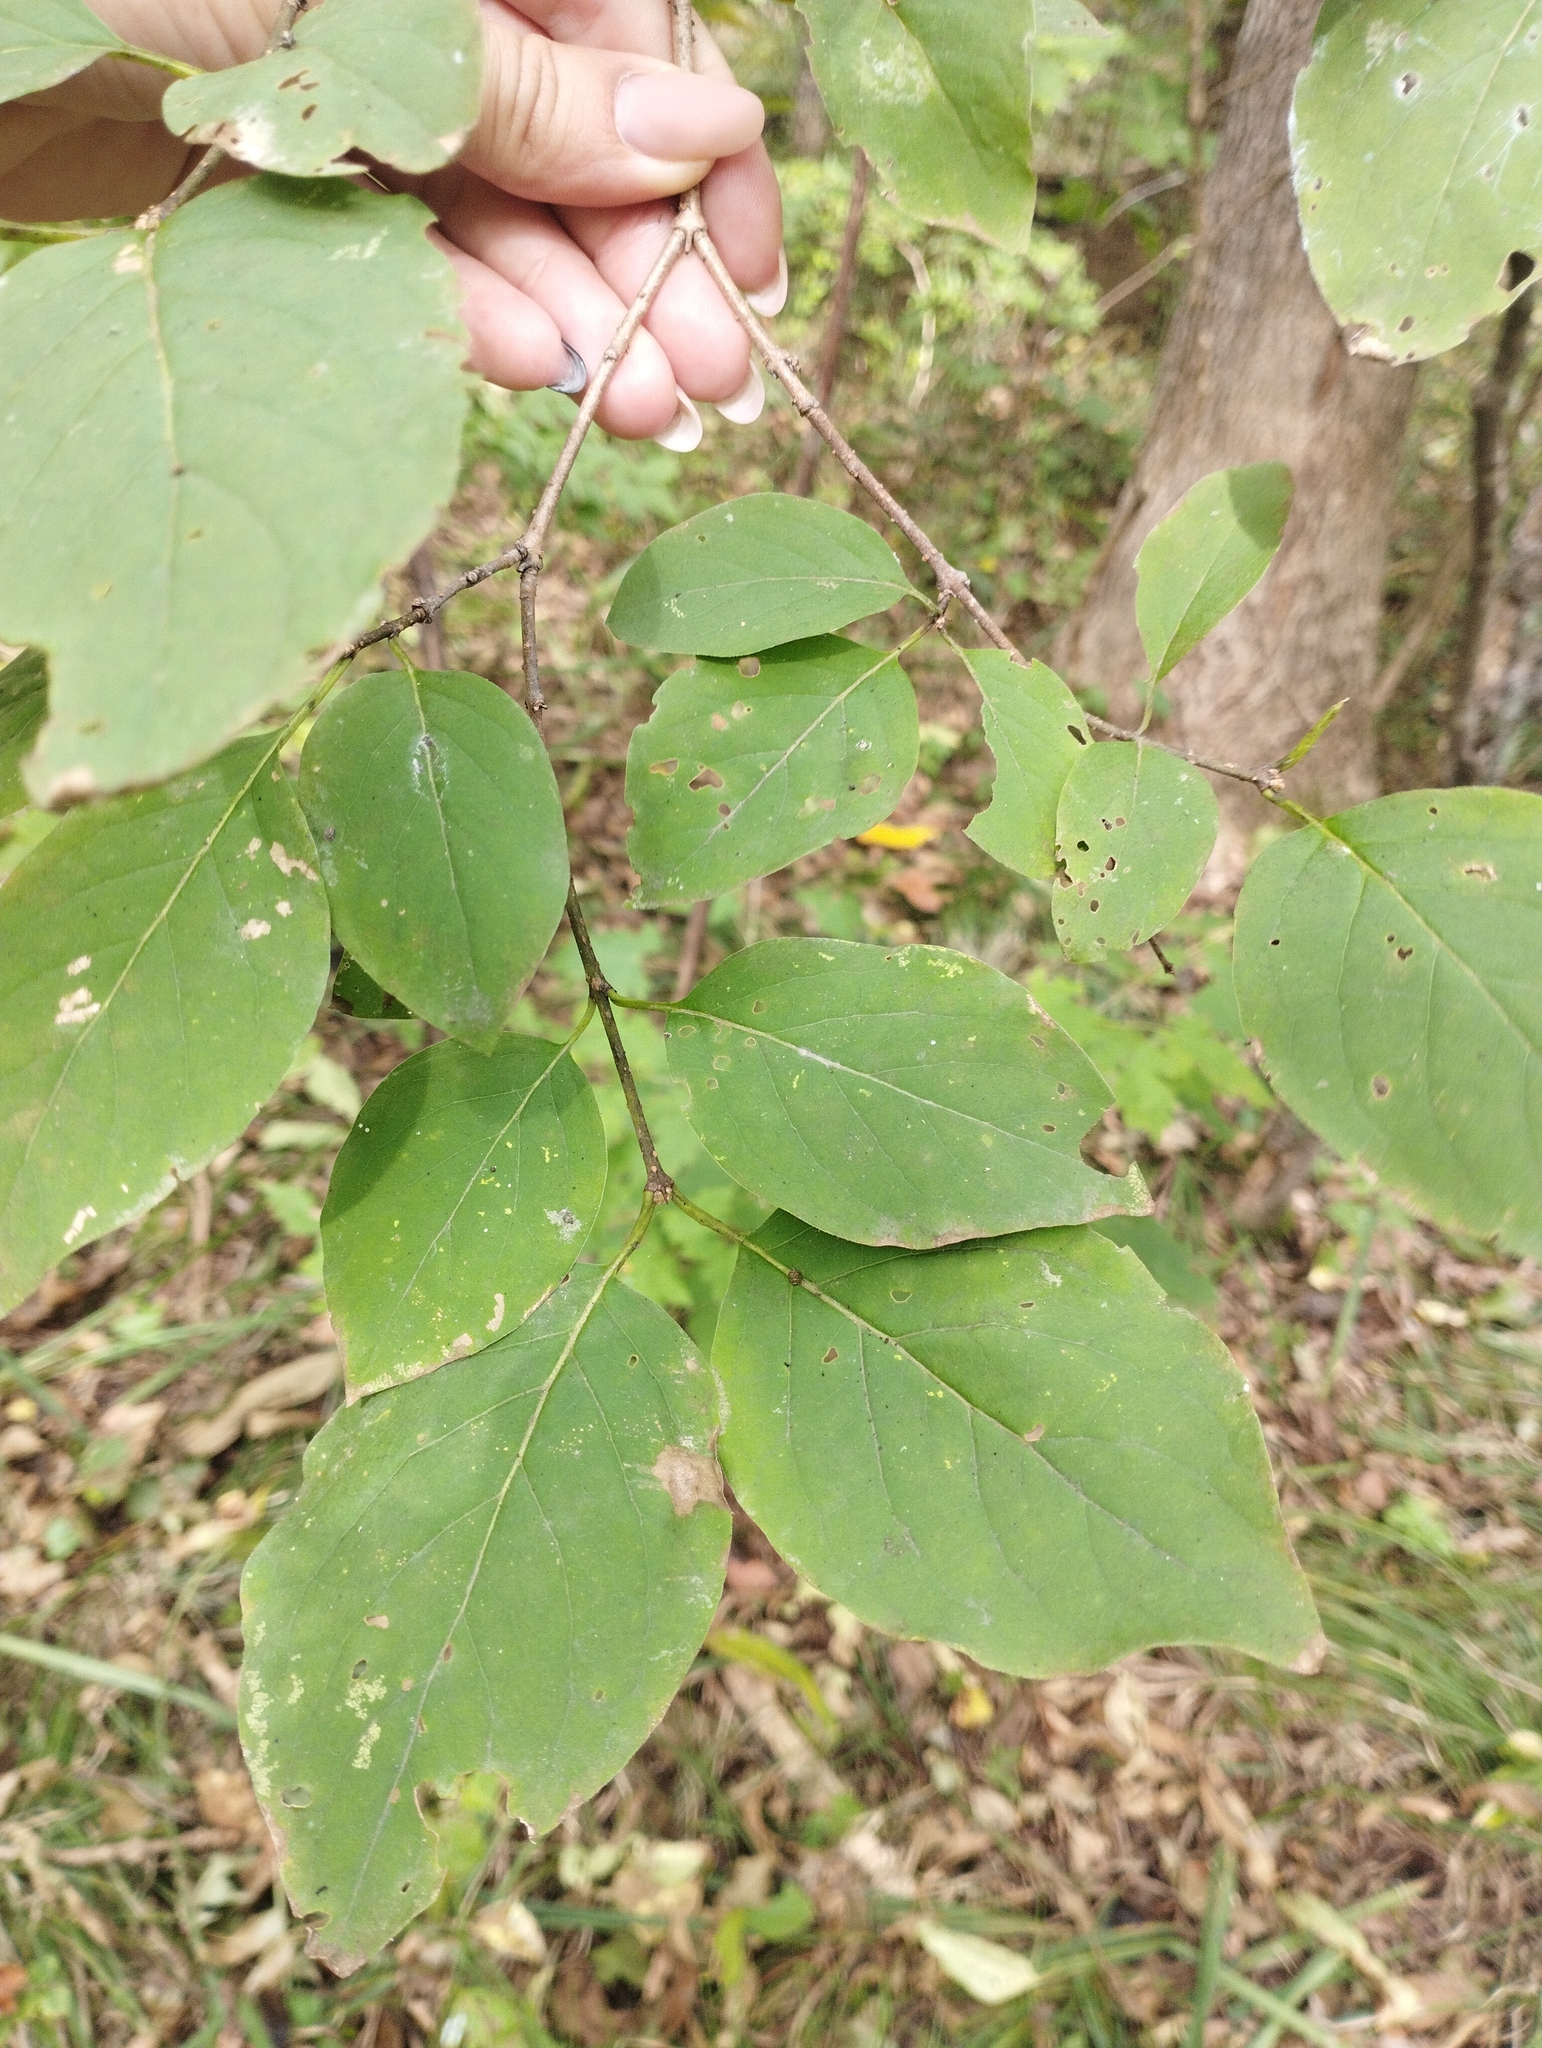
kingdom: Plantae
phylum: Tracheophyta
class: Magnoliopsida
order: Lamiales
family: Oleaceae
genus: Syringa
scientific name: Syringa reticulata
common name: Japanese tree lilac
